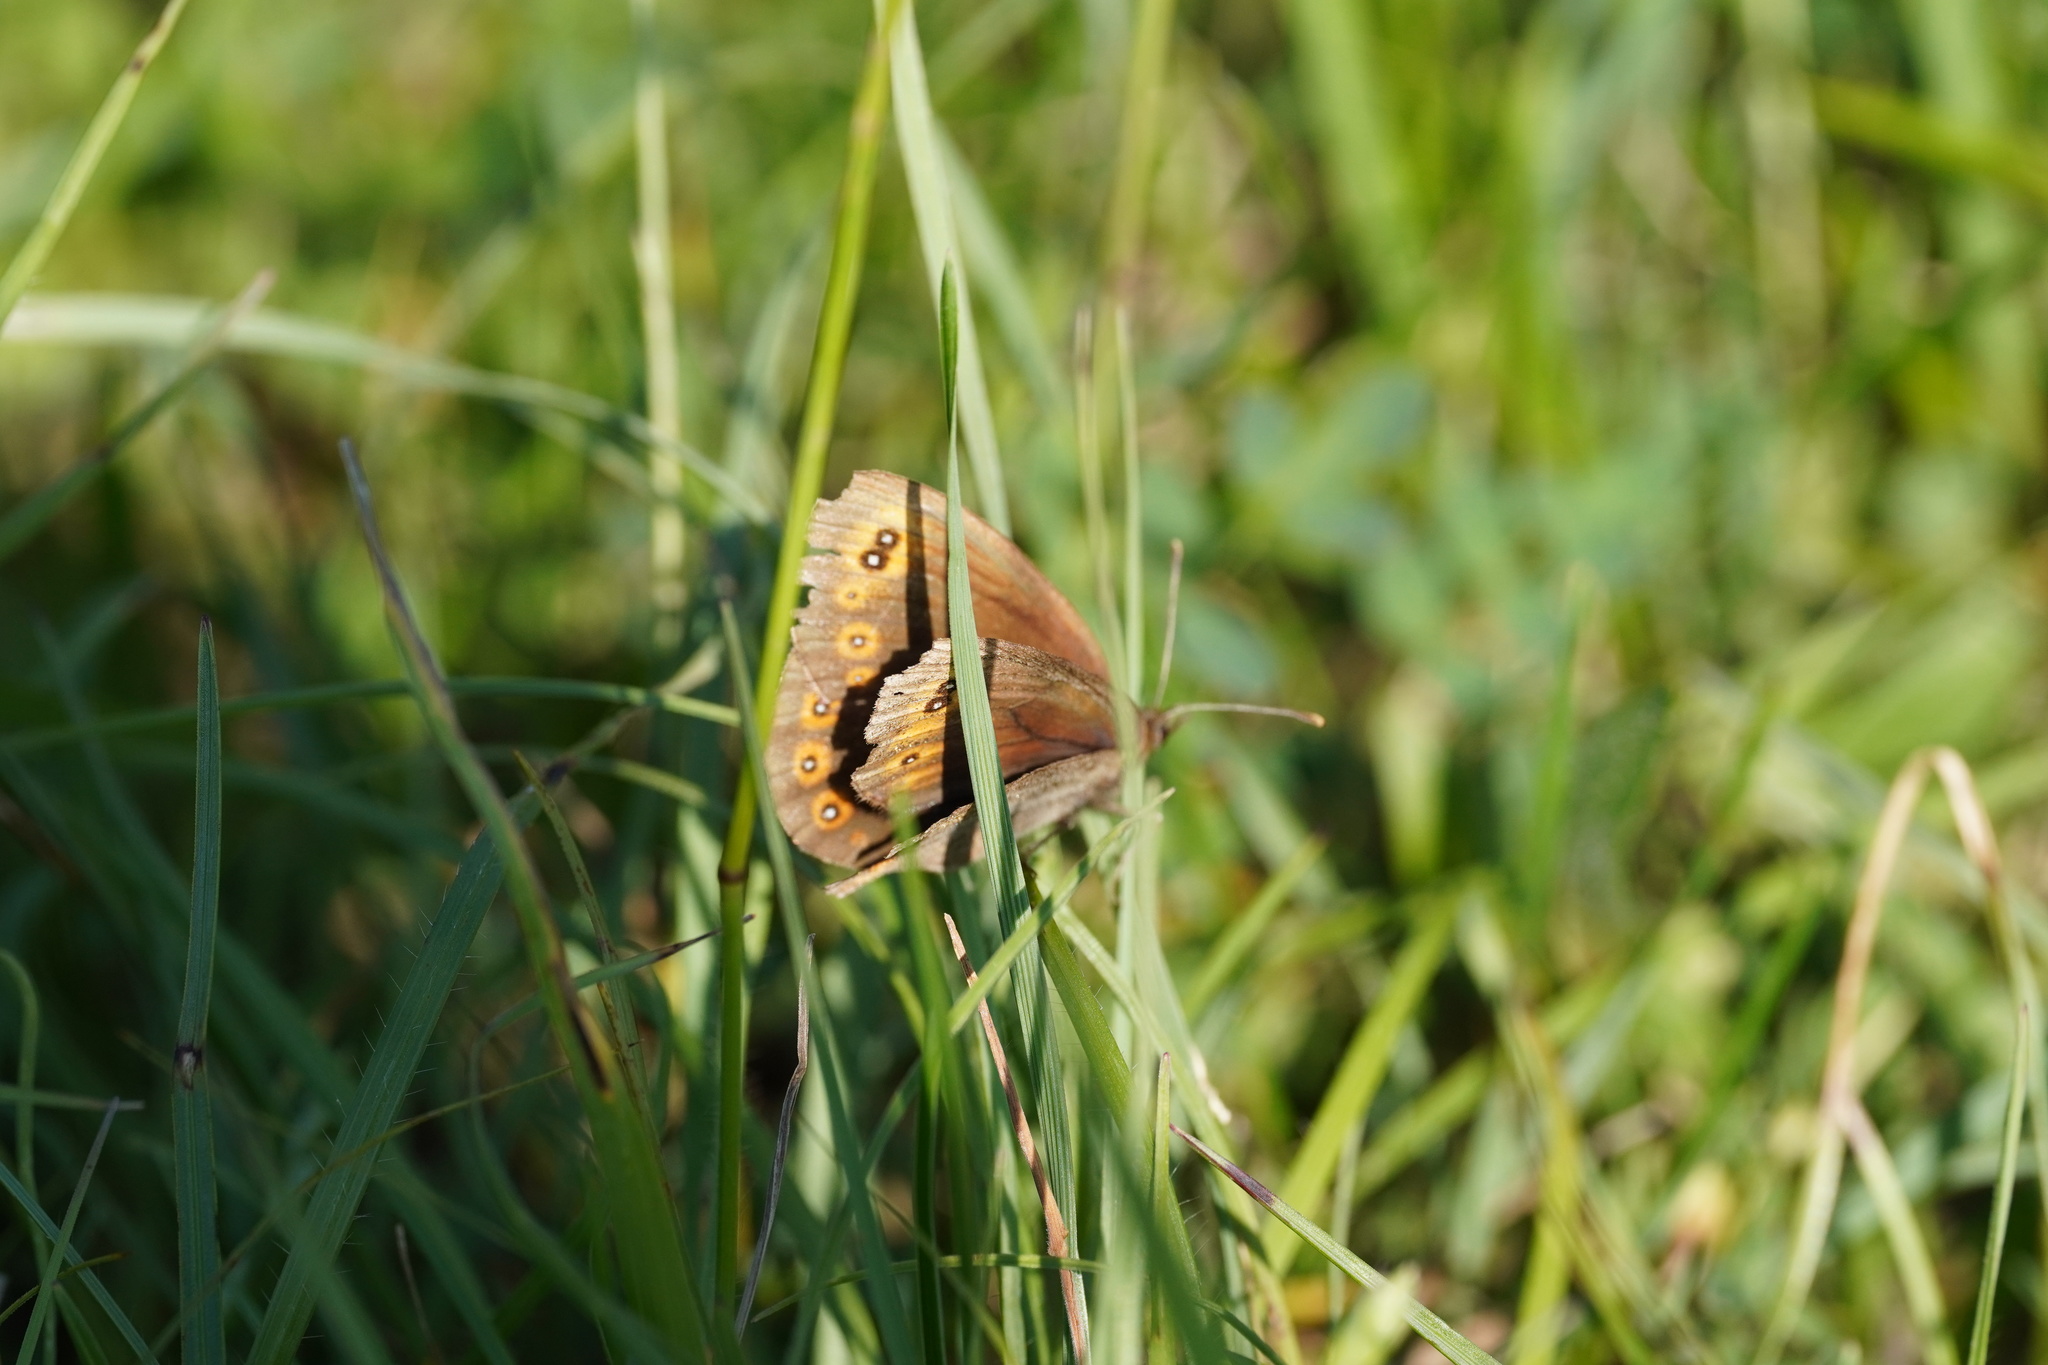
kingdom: Animalia
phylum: Arthropoda
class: Insecta
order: Lepidoptera
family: Nymphalidae
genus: Erebia
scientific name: Erebia medusa
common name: Woodland ringlet
